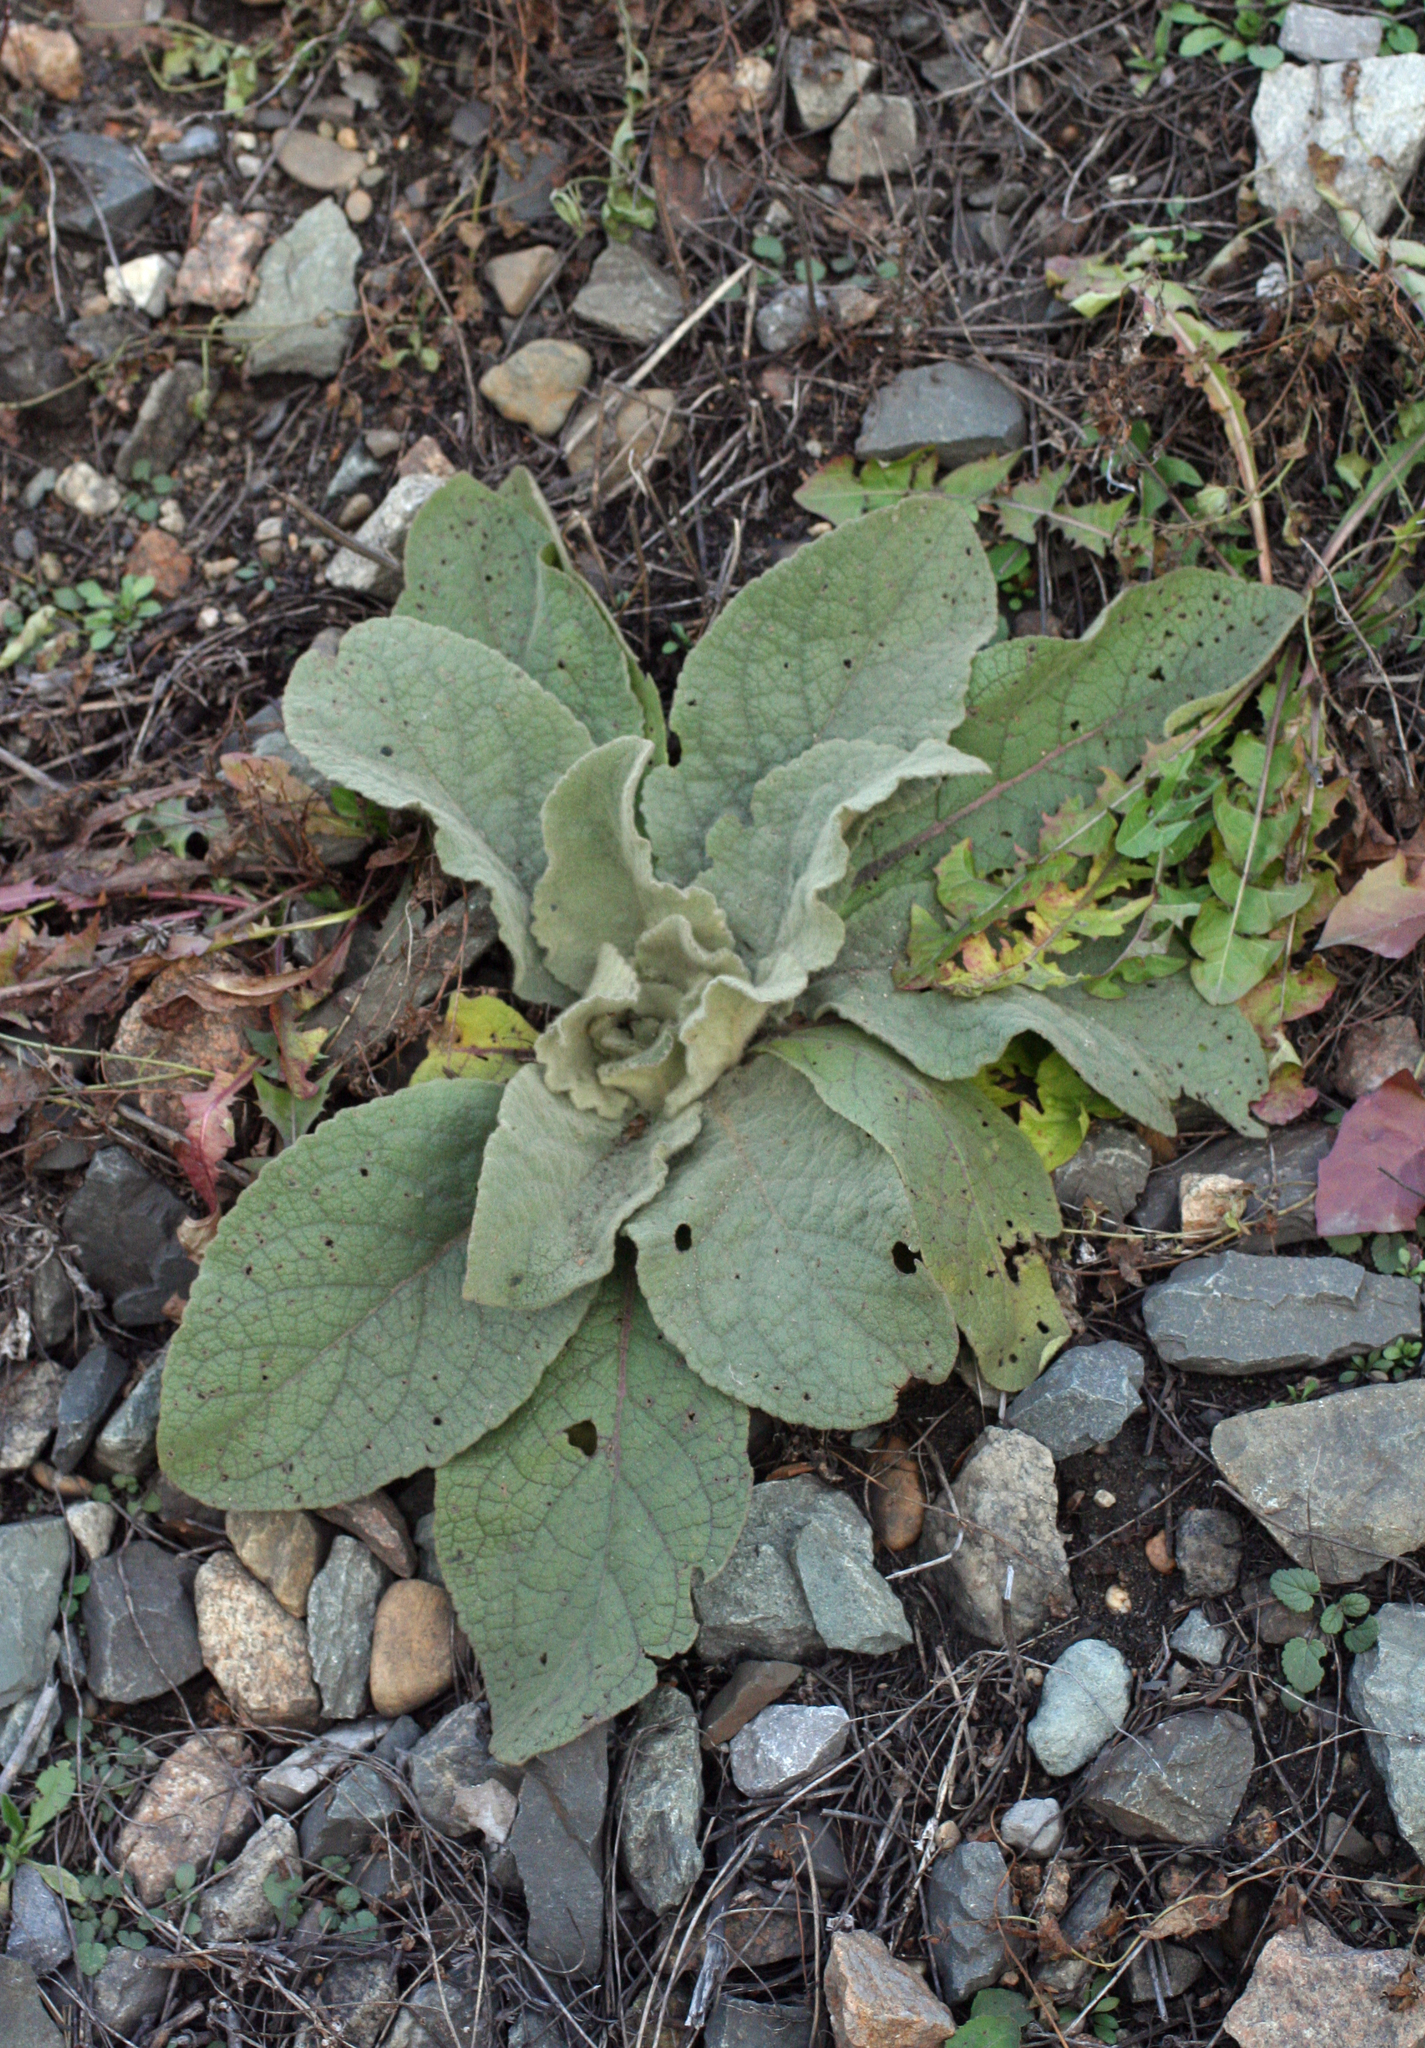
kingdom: Plantae
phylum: Tracheophyta
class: Magnoliopsida
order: Lamiales
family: Scrophulariaceae
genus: Verbascum
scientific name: Verbascum thapsus
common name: Common mullein
